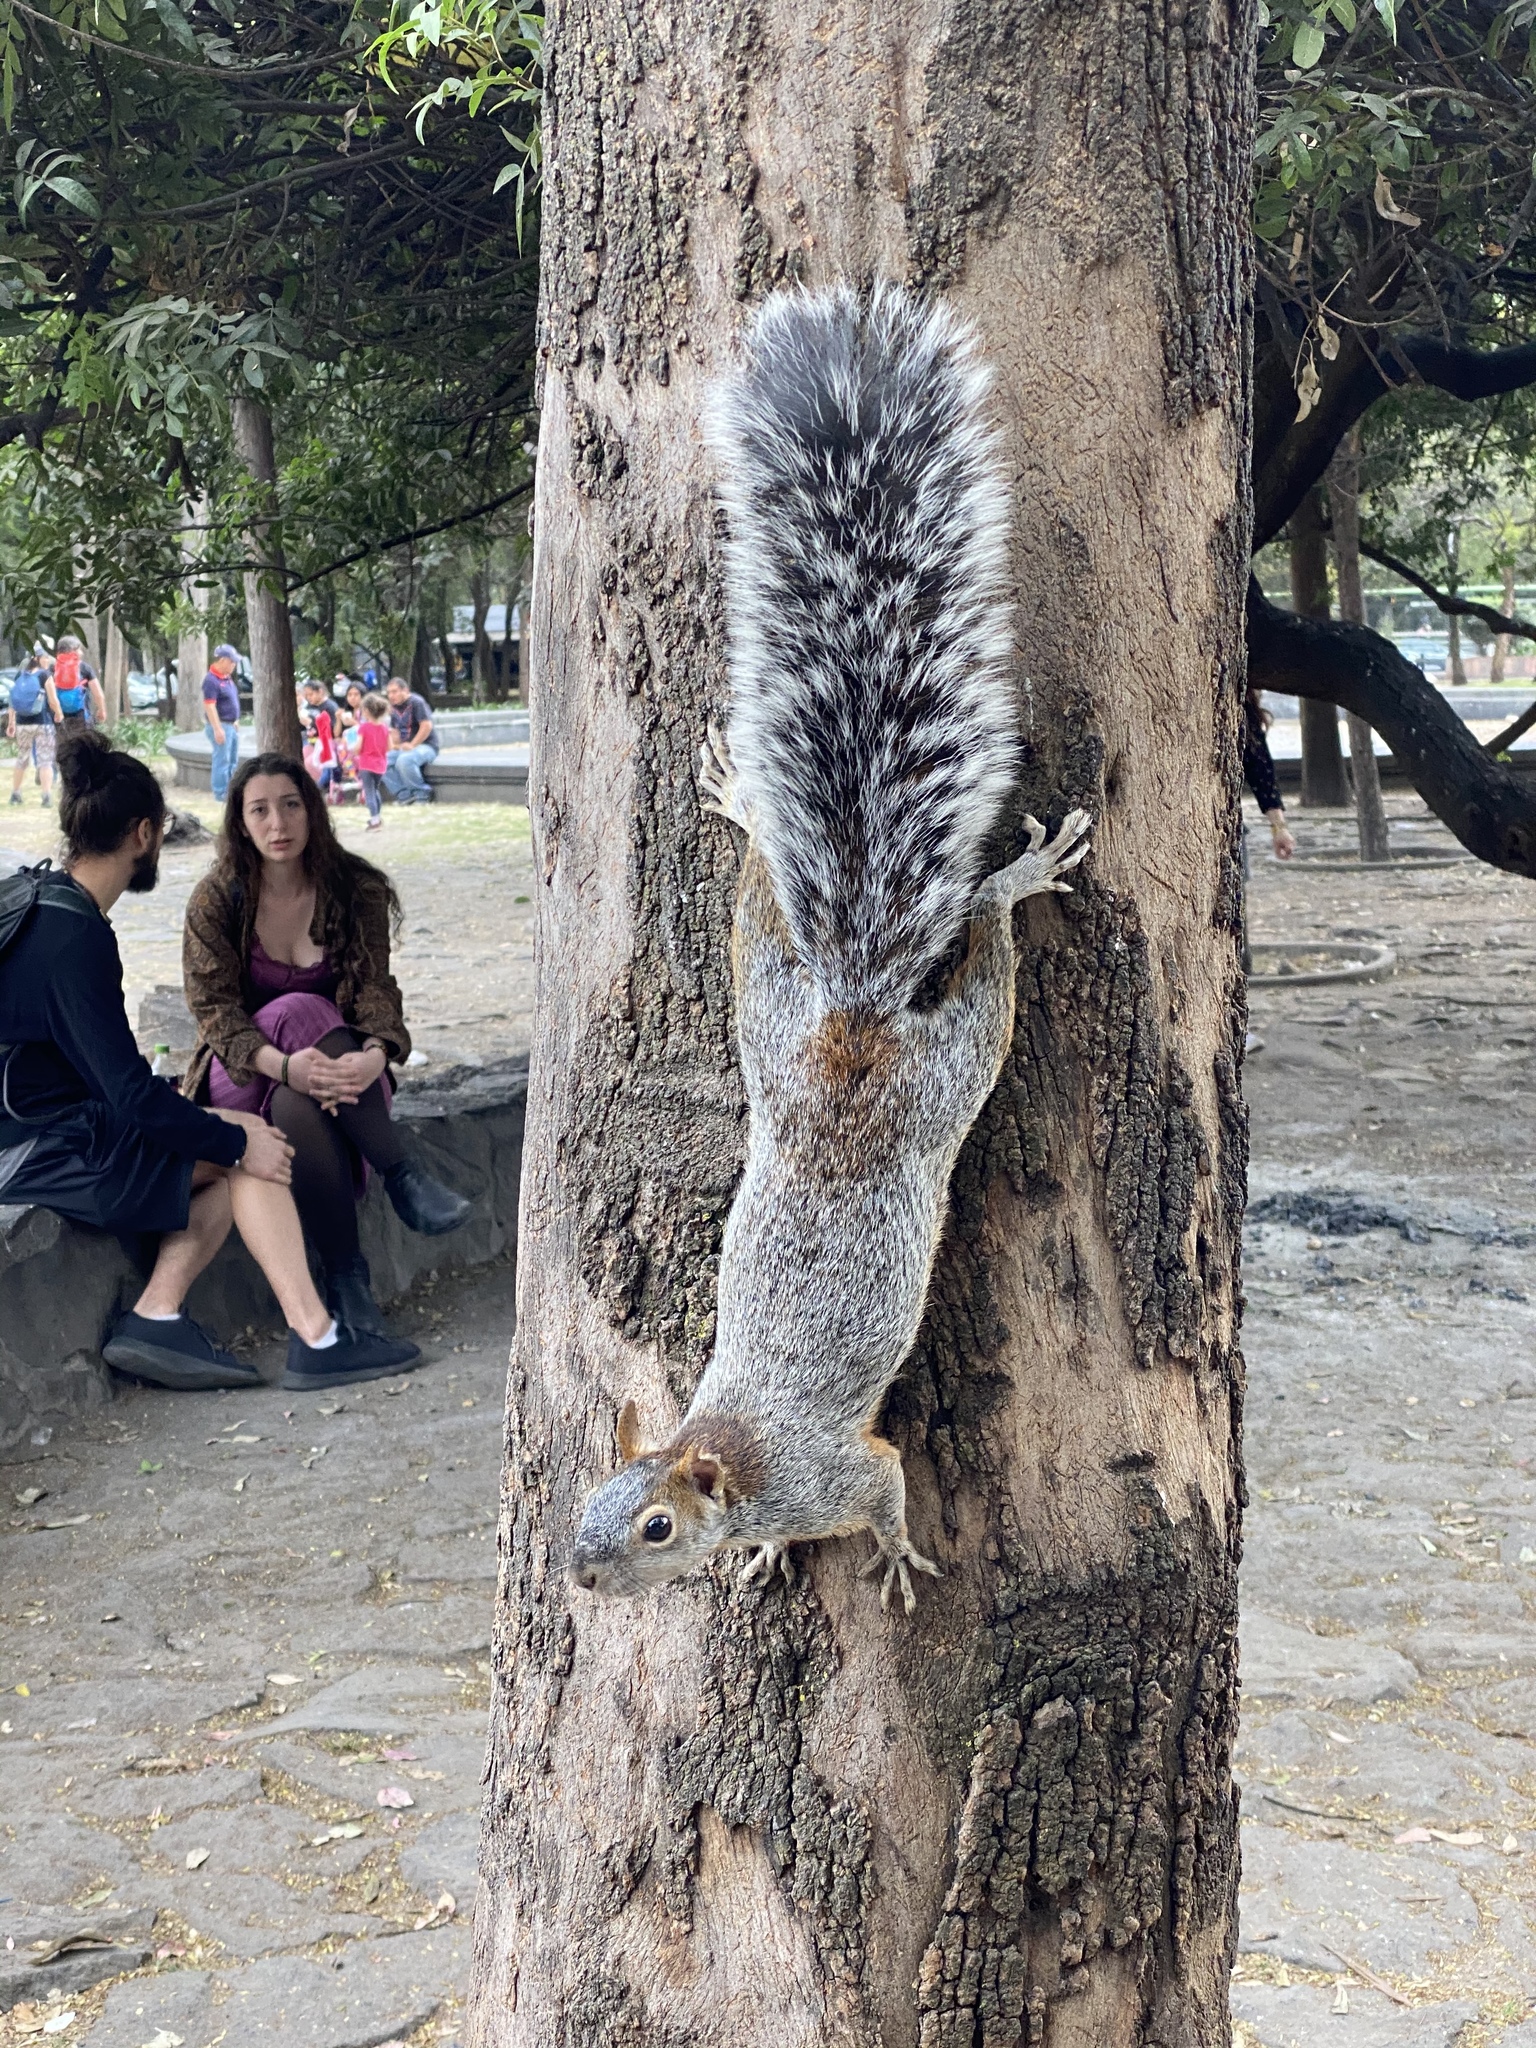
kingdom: Animalia
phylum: Chordata
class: Mammalia
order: Rodentia
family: Sciuridae
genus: Sciurus
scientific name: Sciurus aureogaster
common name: Red-bellied squirrel
